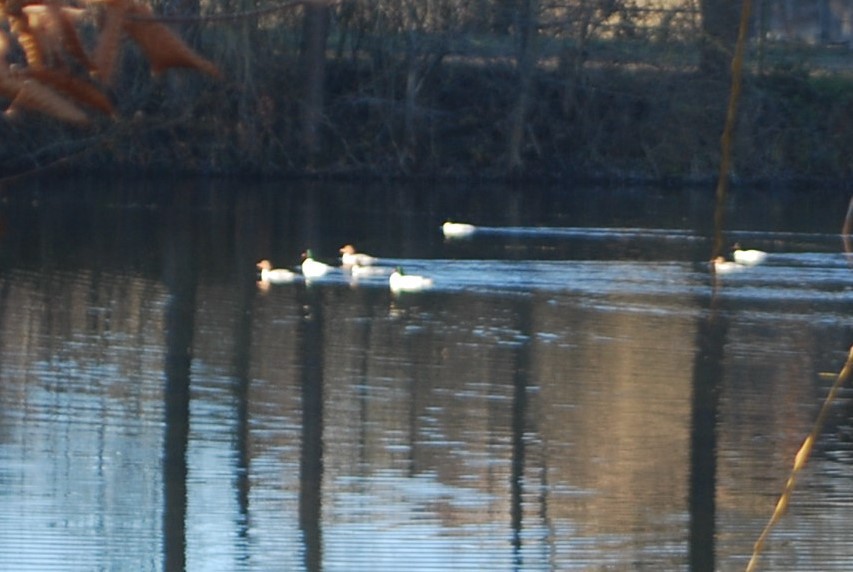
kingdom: Animalia
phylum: Chordata
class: Aves
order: Anseriformes
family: Anatidae
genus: Mergus
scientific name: Mergus merganser
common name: Common merganser
